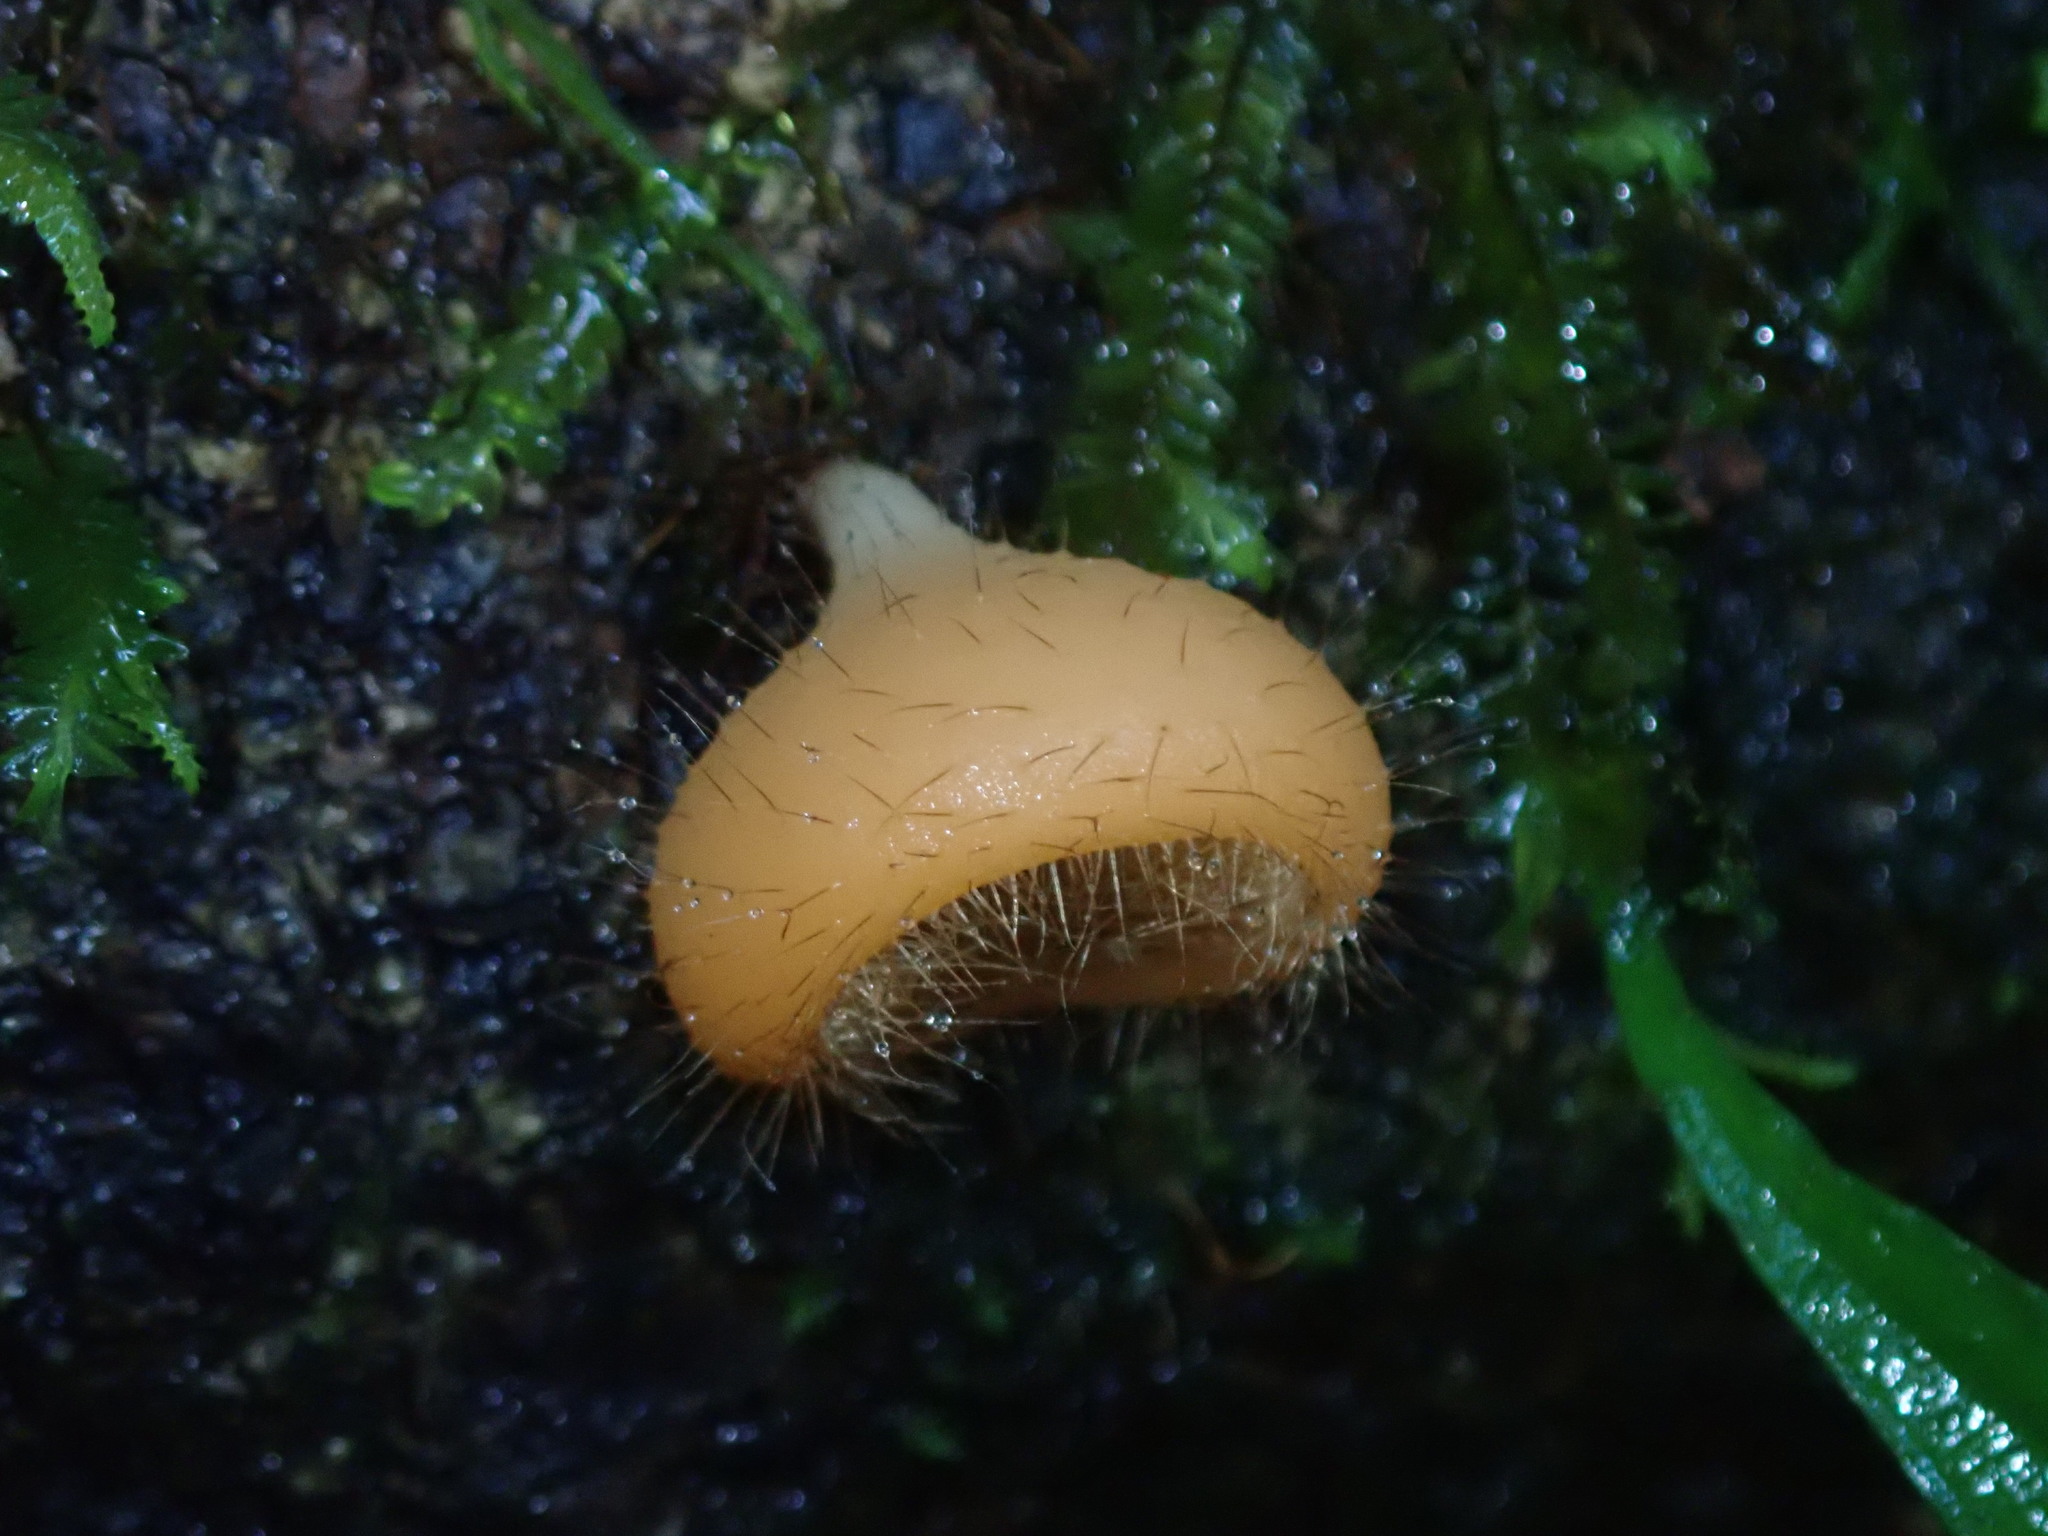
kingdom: Fungi
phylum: Ascomycota
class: Pezizomycetes
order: Pezizales
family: Sarcoscyphaceae
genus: Cookeina
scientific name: Cookeina tricholoma
